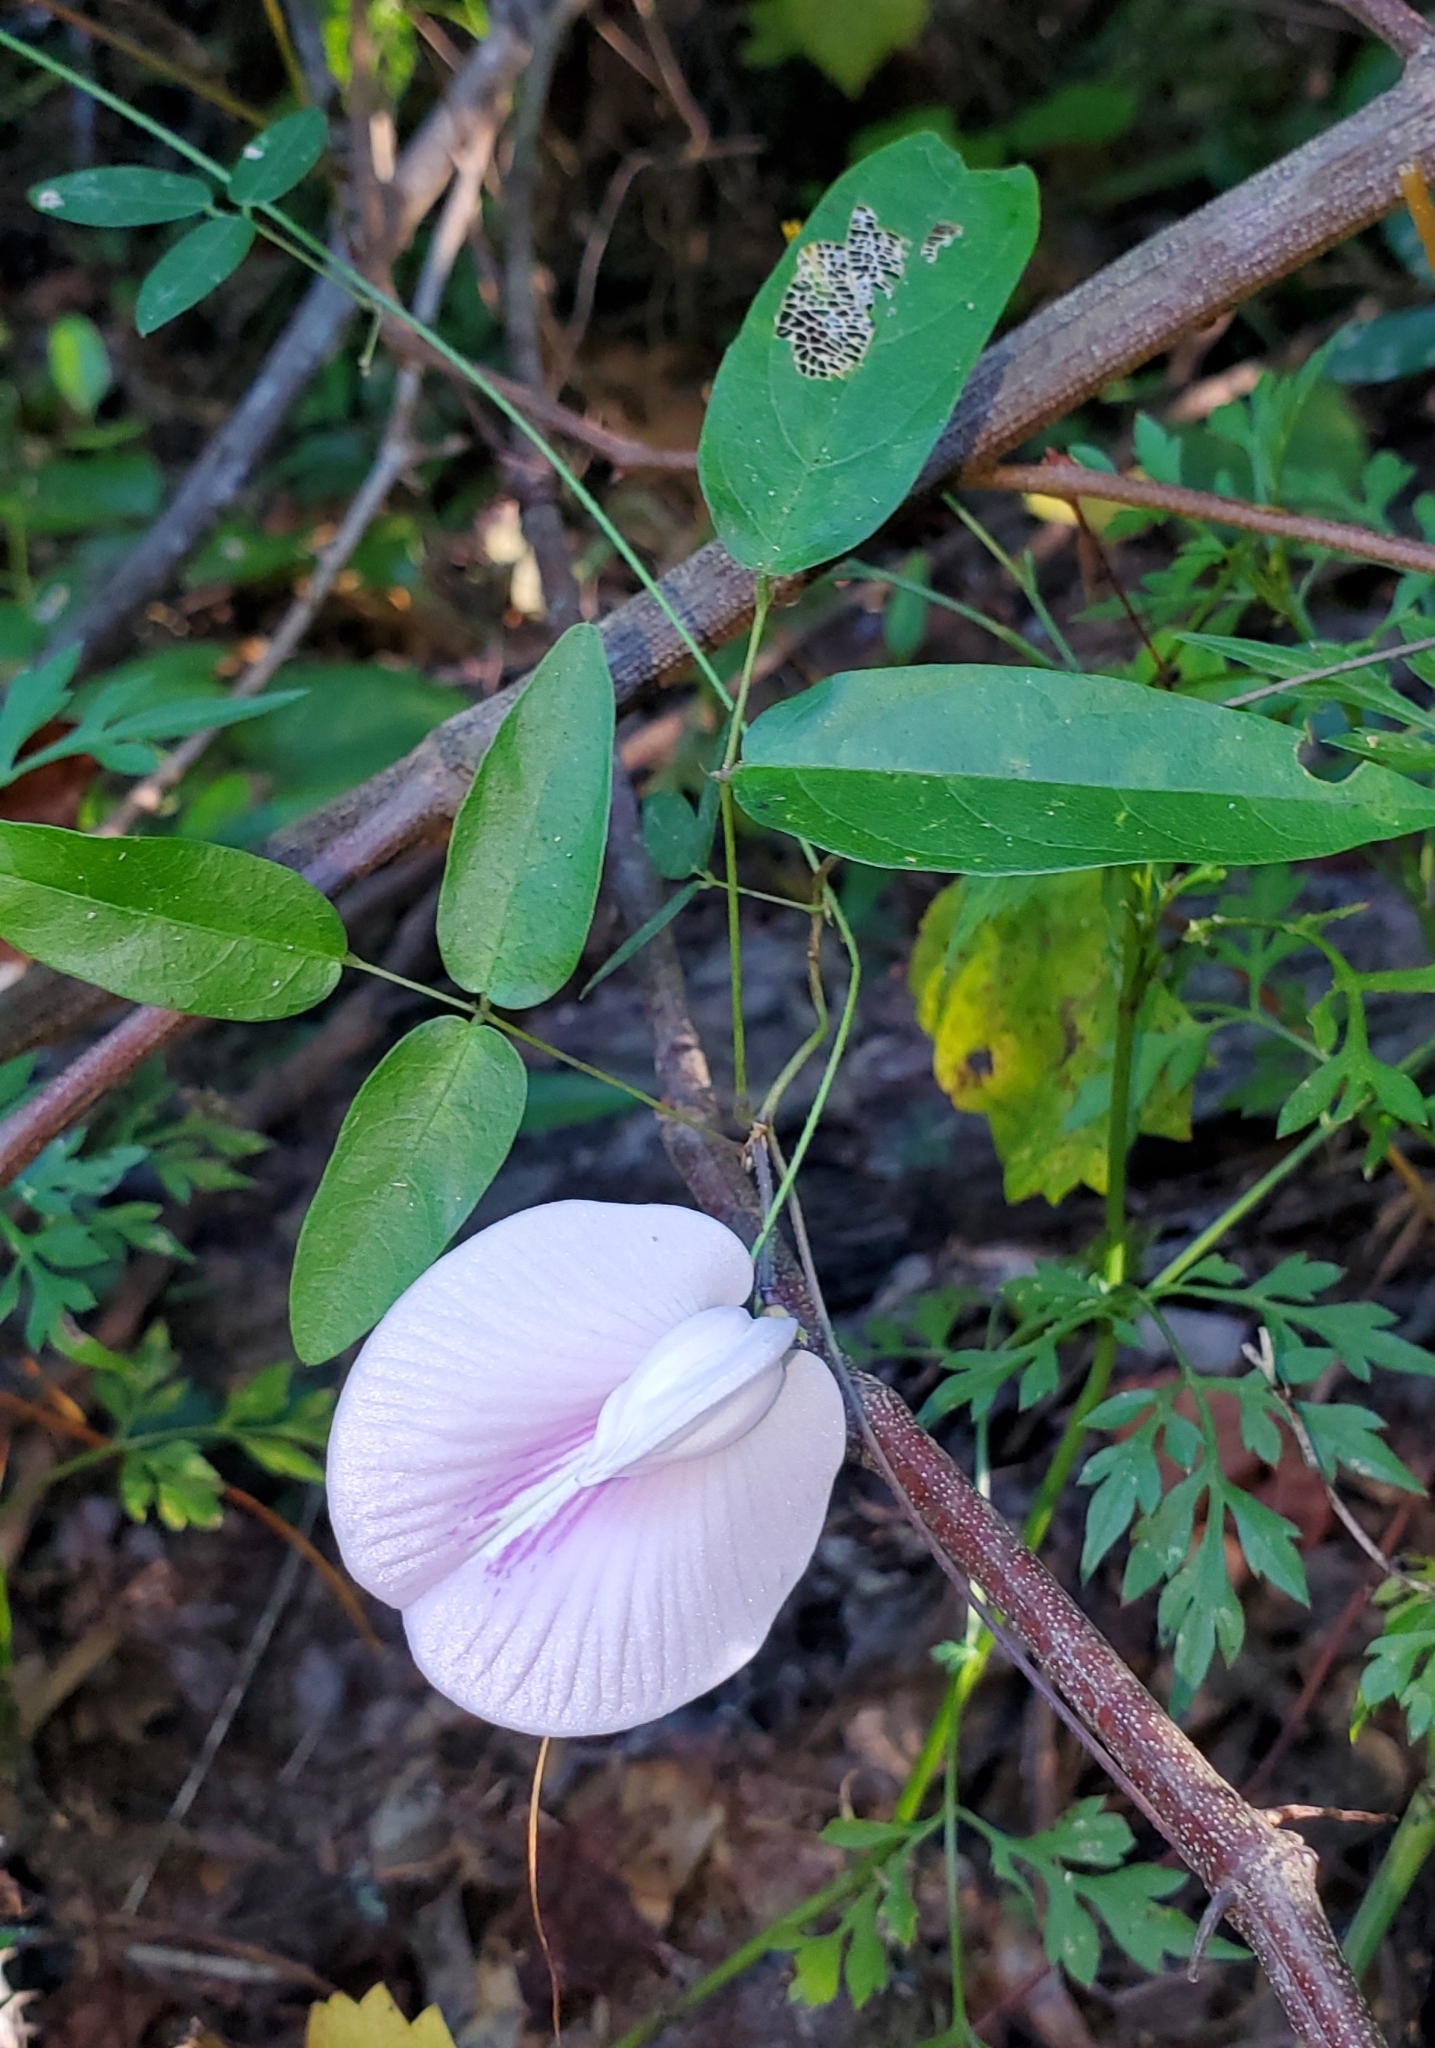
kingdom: Plantae
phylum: Tracheophyta
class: Magnoliopsida
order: Fabales
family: Fabaceae
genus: Centrosema
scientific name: Centrosema virginianum
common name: Butterfly-pea
